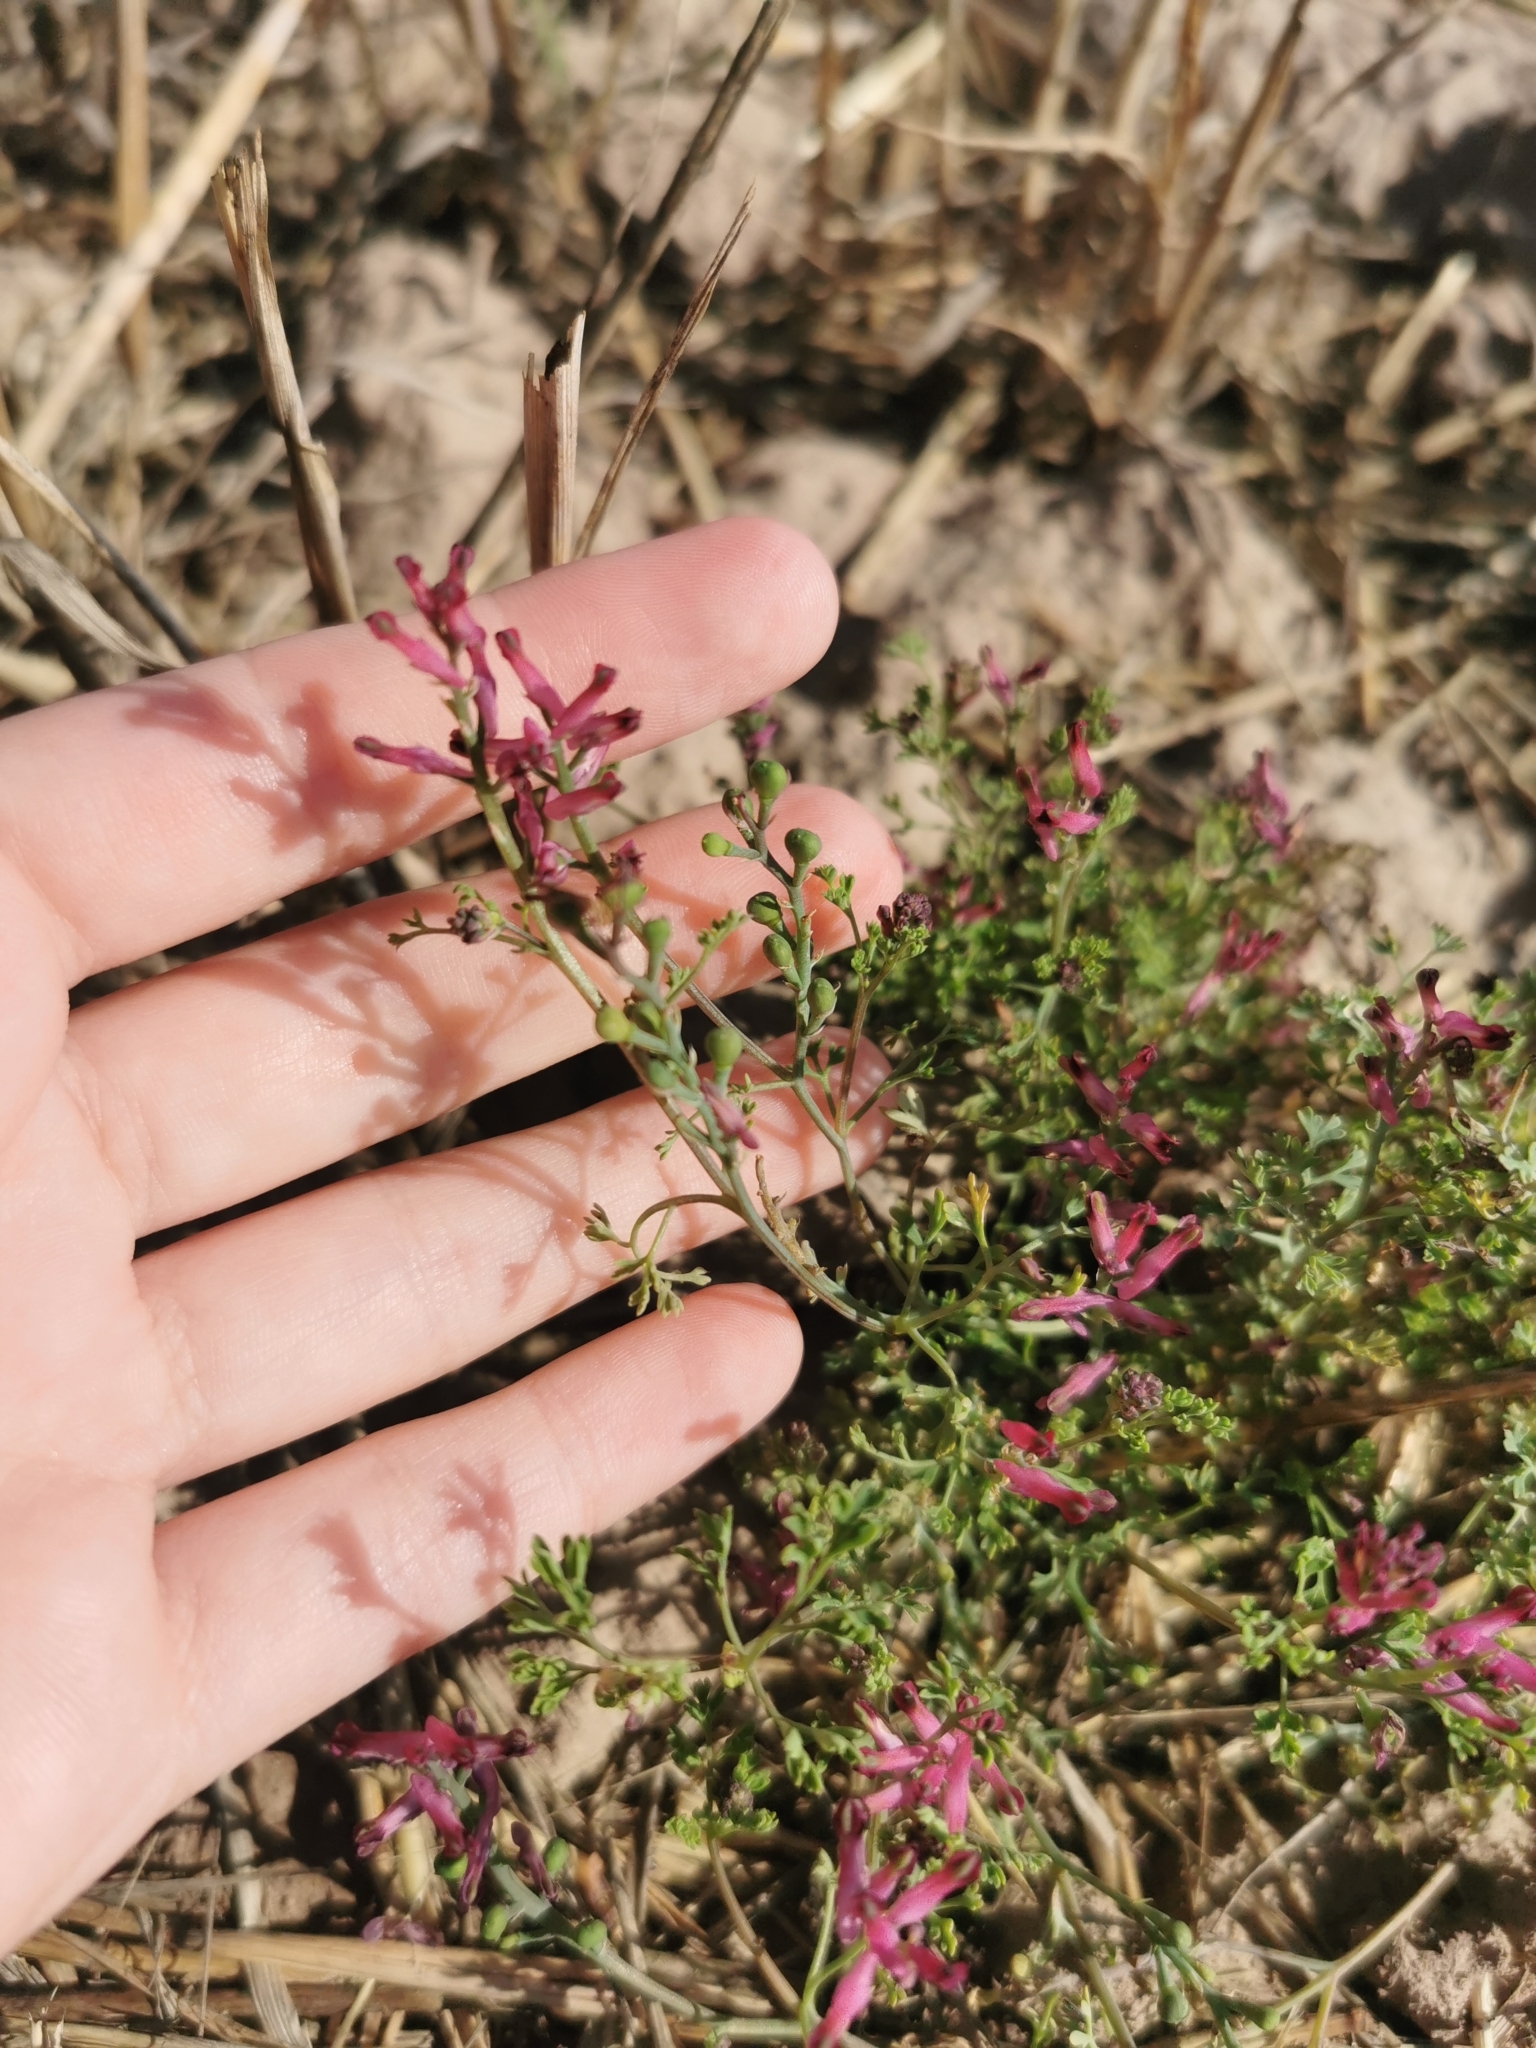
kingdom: Plantae
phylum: Tracheophyta
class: Magnoliopsida
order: Ranunculales
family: Papaveraceae
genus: Fumaria
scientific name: Fumaria officinalis
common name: Common fumitory
